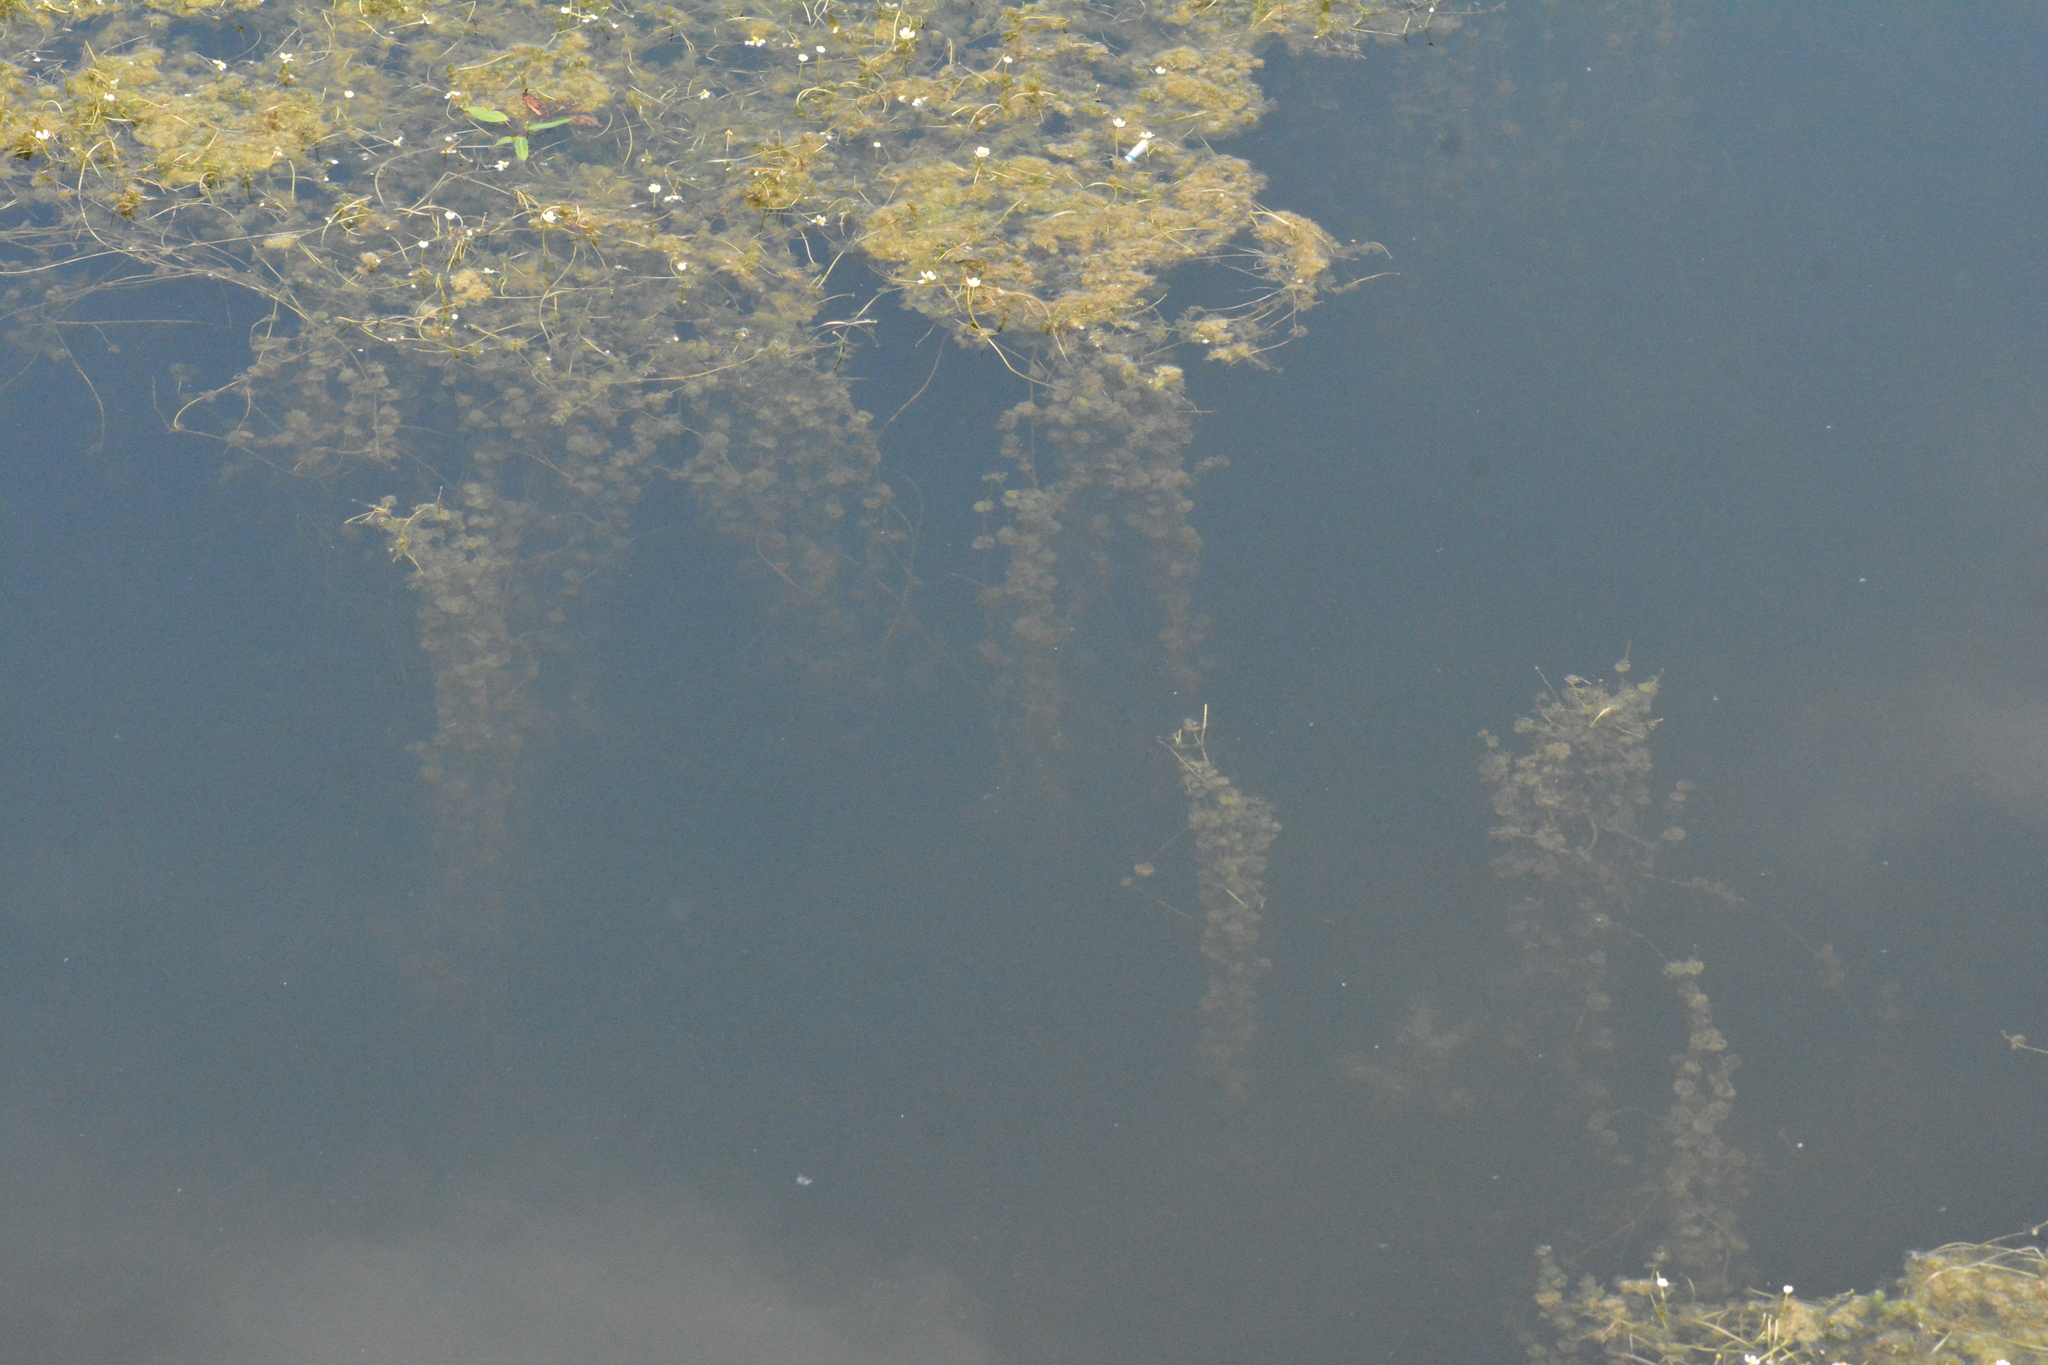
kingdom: Plantae
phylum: Tracheophyta
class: Magnoliopsida
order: Ranunculales
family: Ranunculaceae
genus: Ranunculus
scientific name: Ranunculus circinatus
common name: Fan-leaved water-crowfoot
